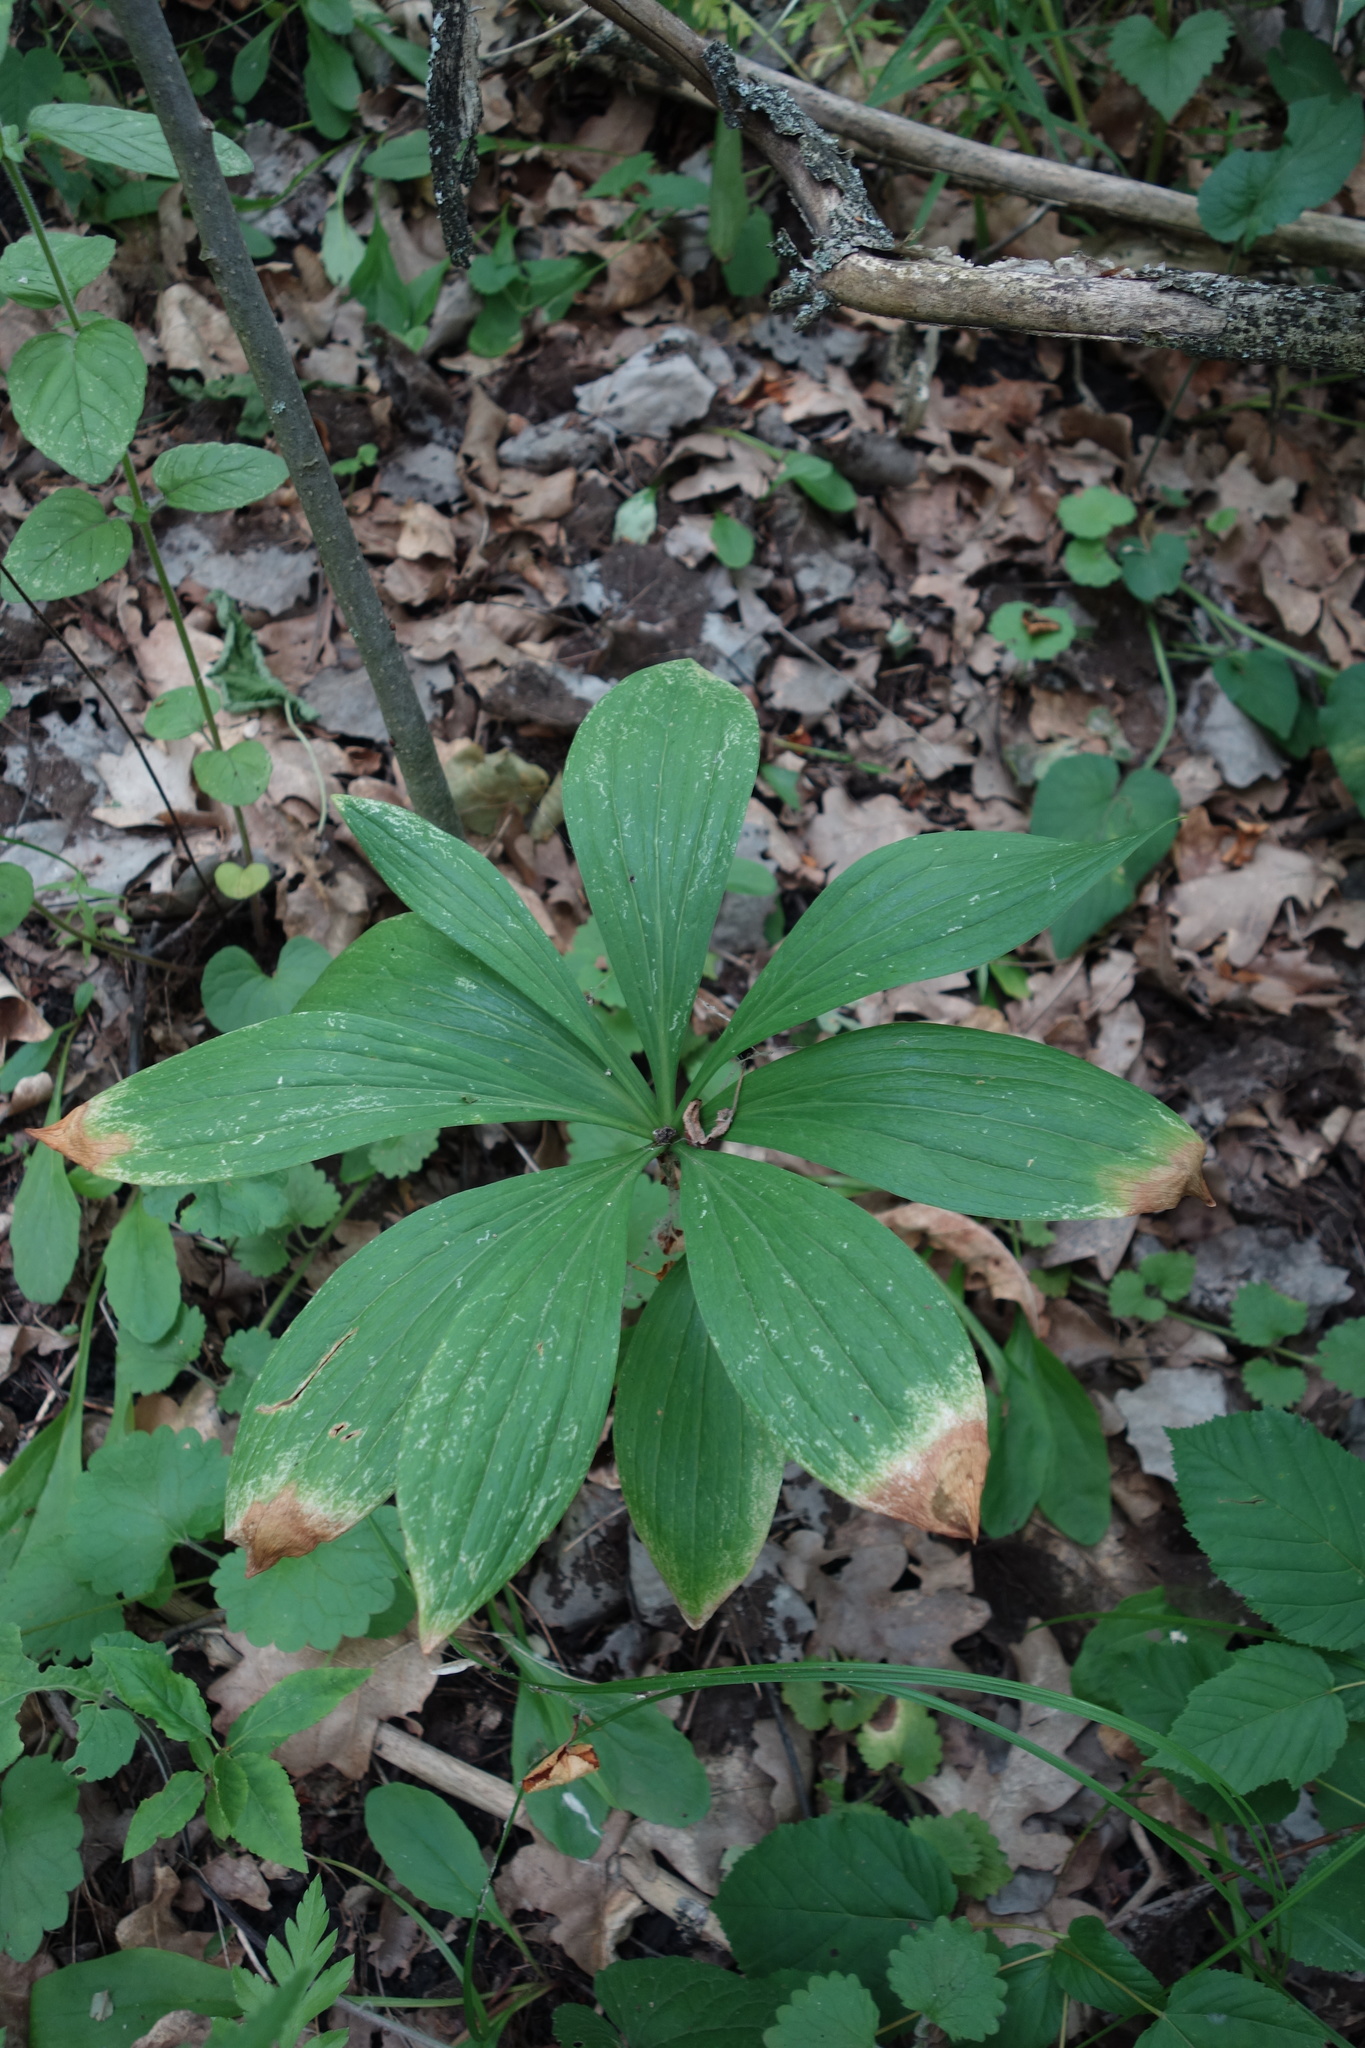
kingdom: Plantae
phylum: Tracheophyta
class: Liliopsida
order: Liliales
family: Liliaceae
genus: Lilium
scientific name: Lilium martagon
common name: Martagon lily
